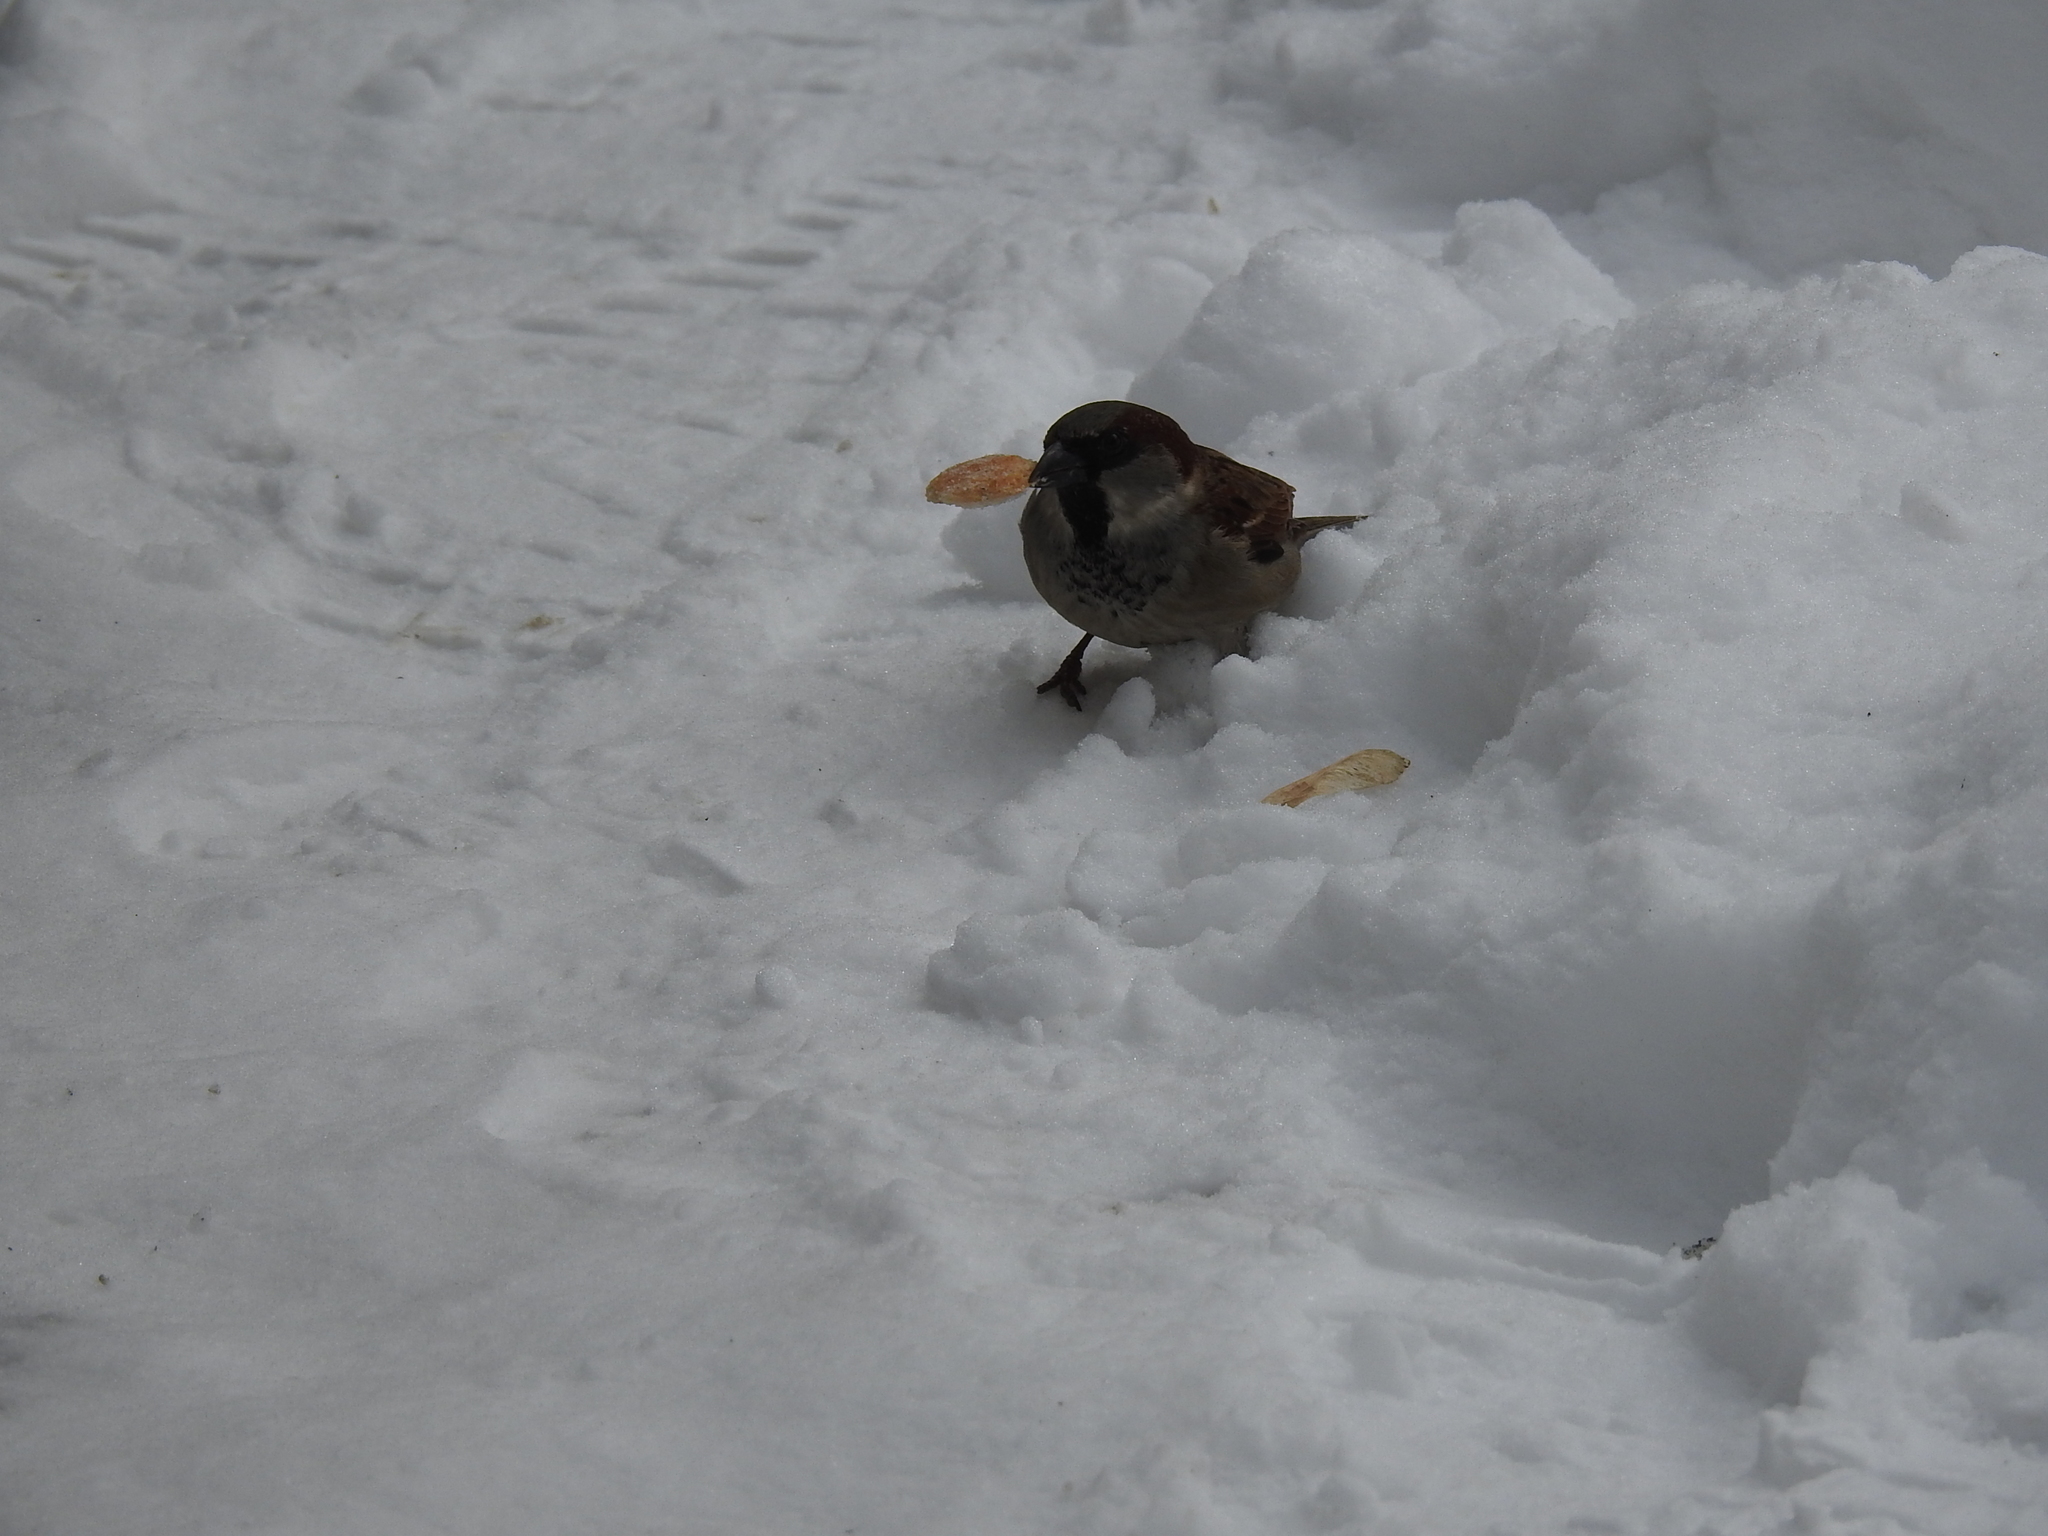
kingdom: Animalia
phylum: Chordata
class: Aves
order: Passeriformes
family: Passeridae
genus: Passer
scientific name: Passer domesticus
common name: House sparrow
